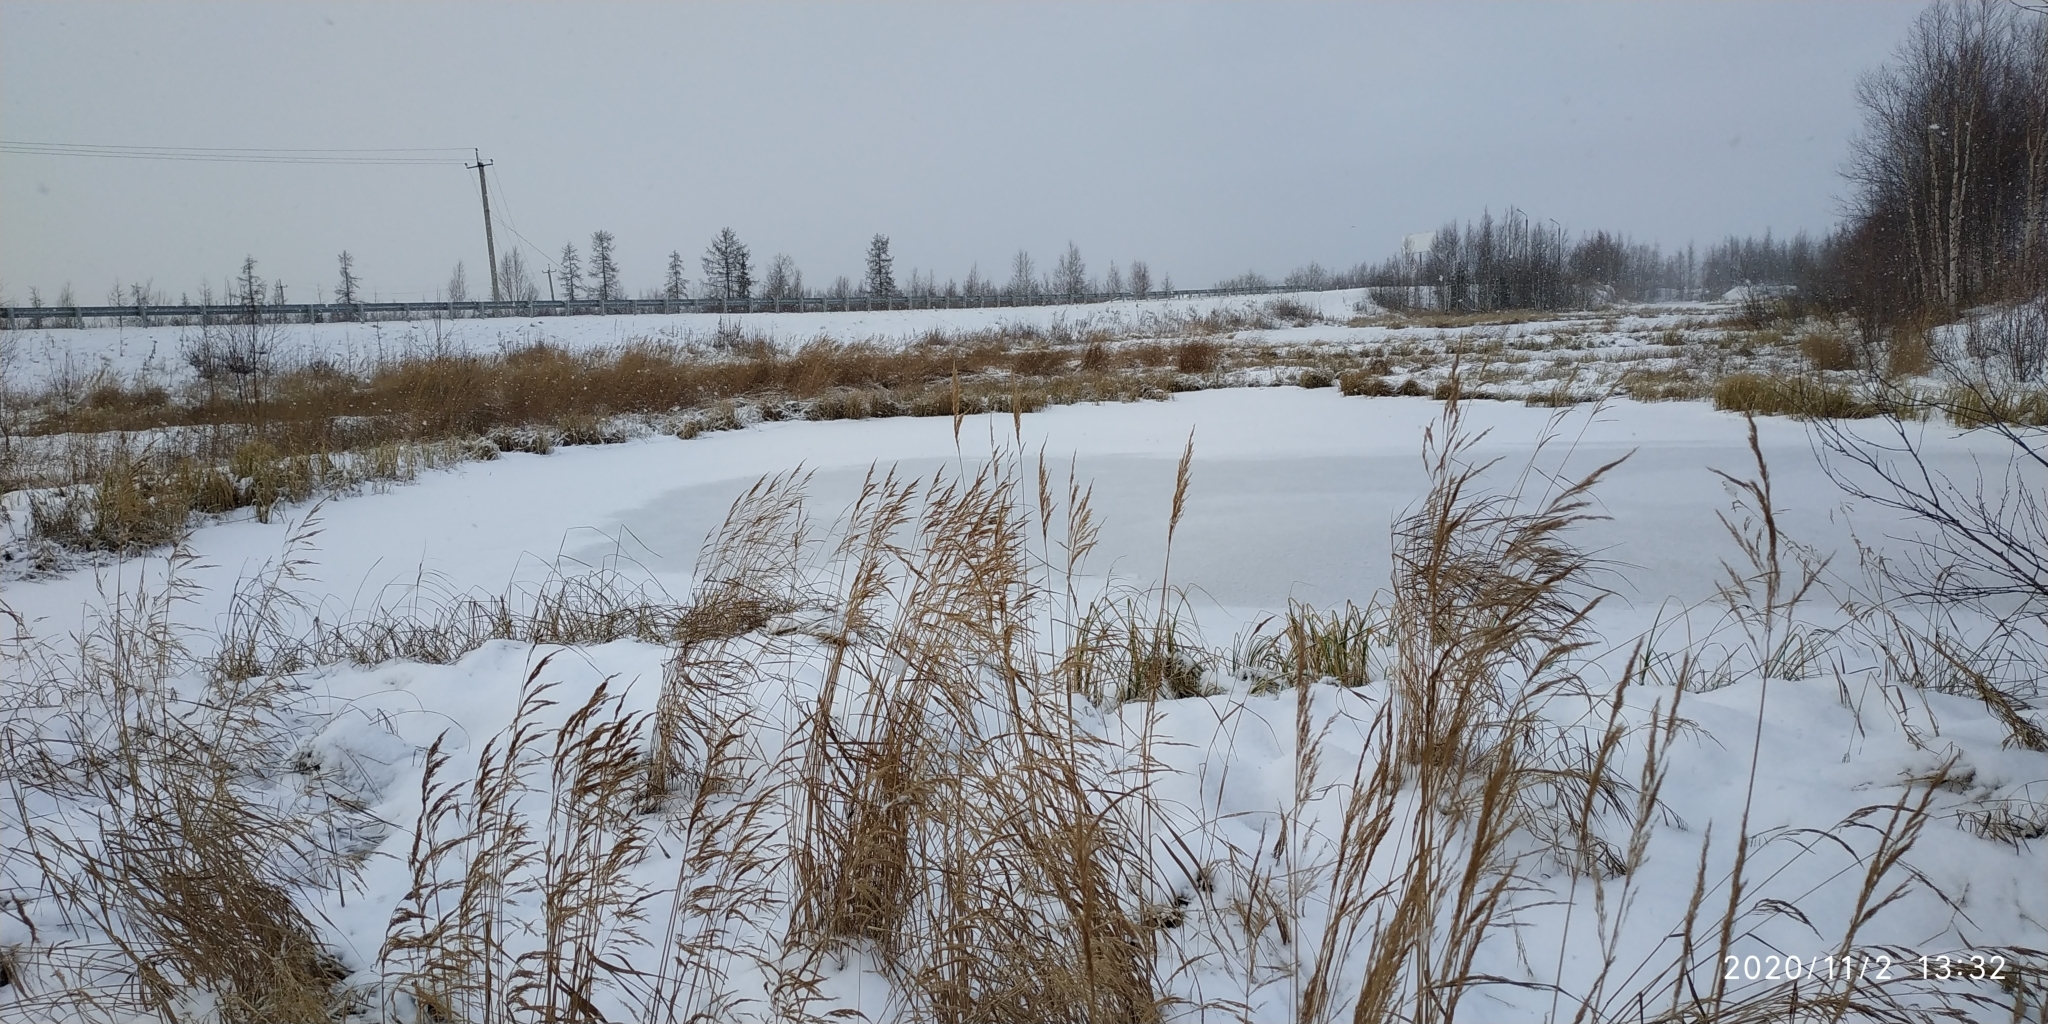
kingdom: Plantae
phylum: Tracheophyta
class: Liliopsida
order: Poales
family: Poaceae
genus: Phalaris
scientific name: Phalaris arundinacea
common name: Reed canary-grass
